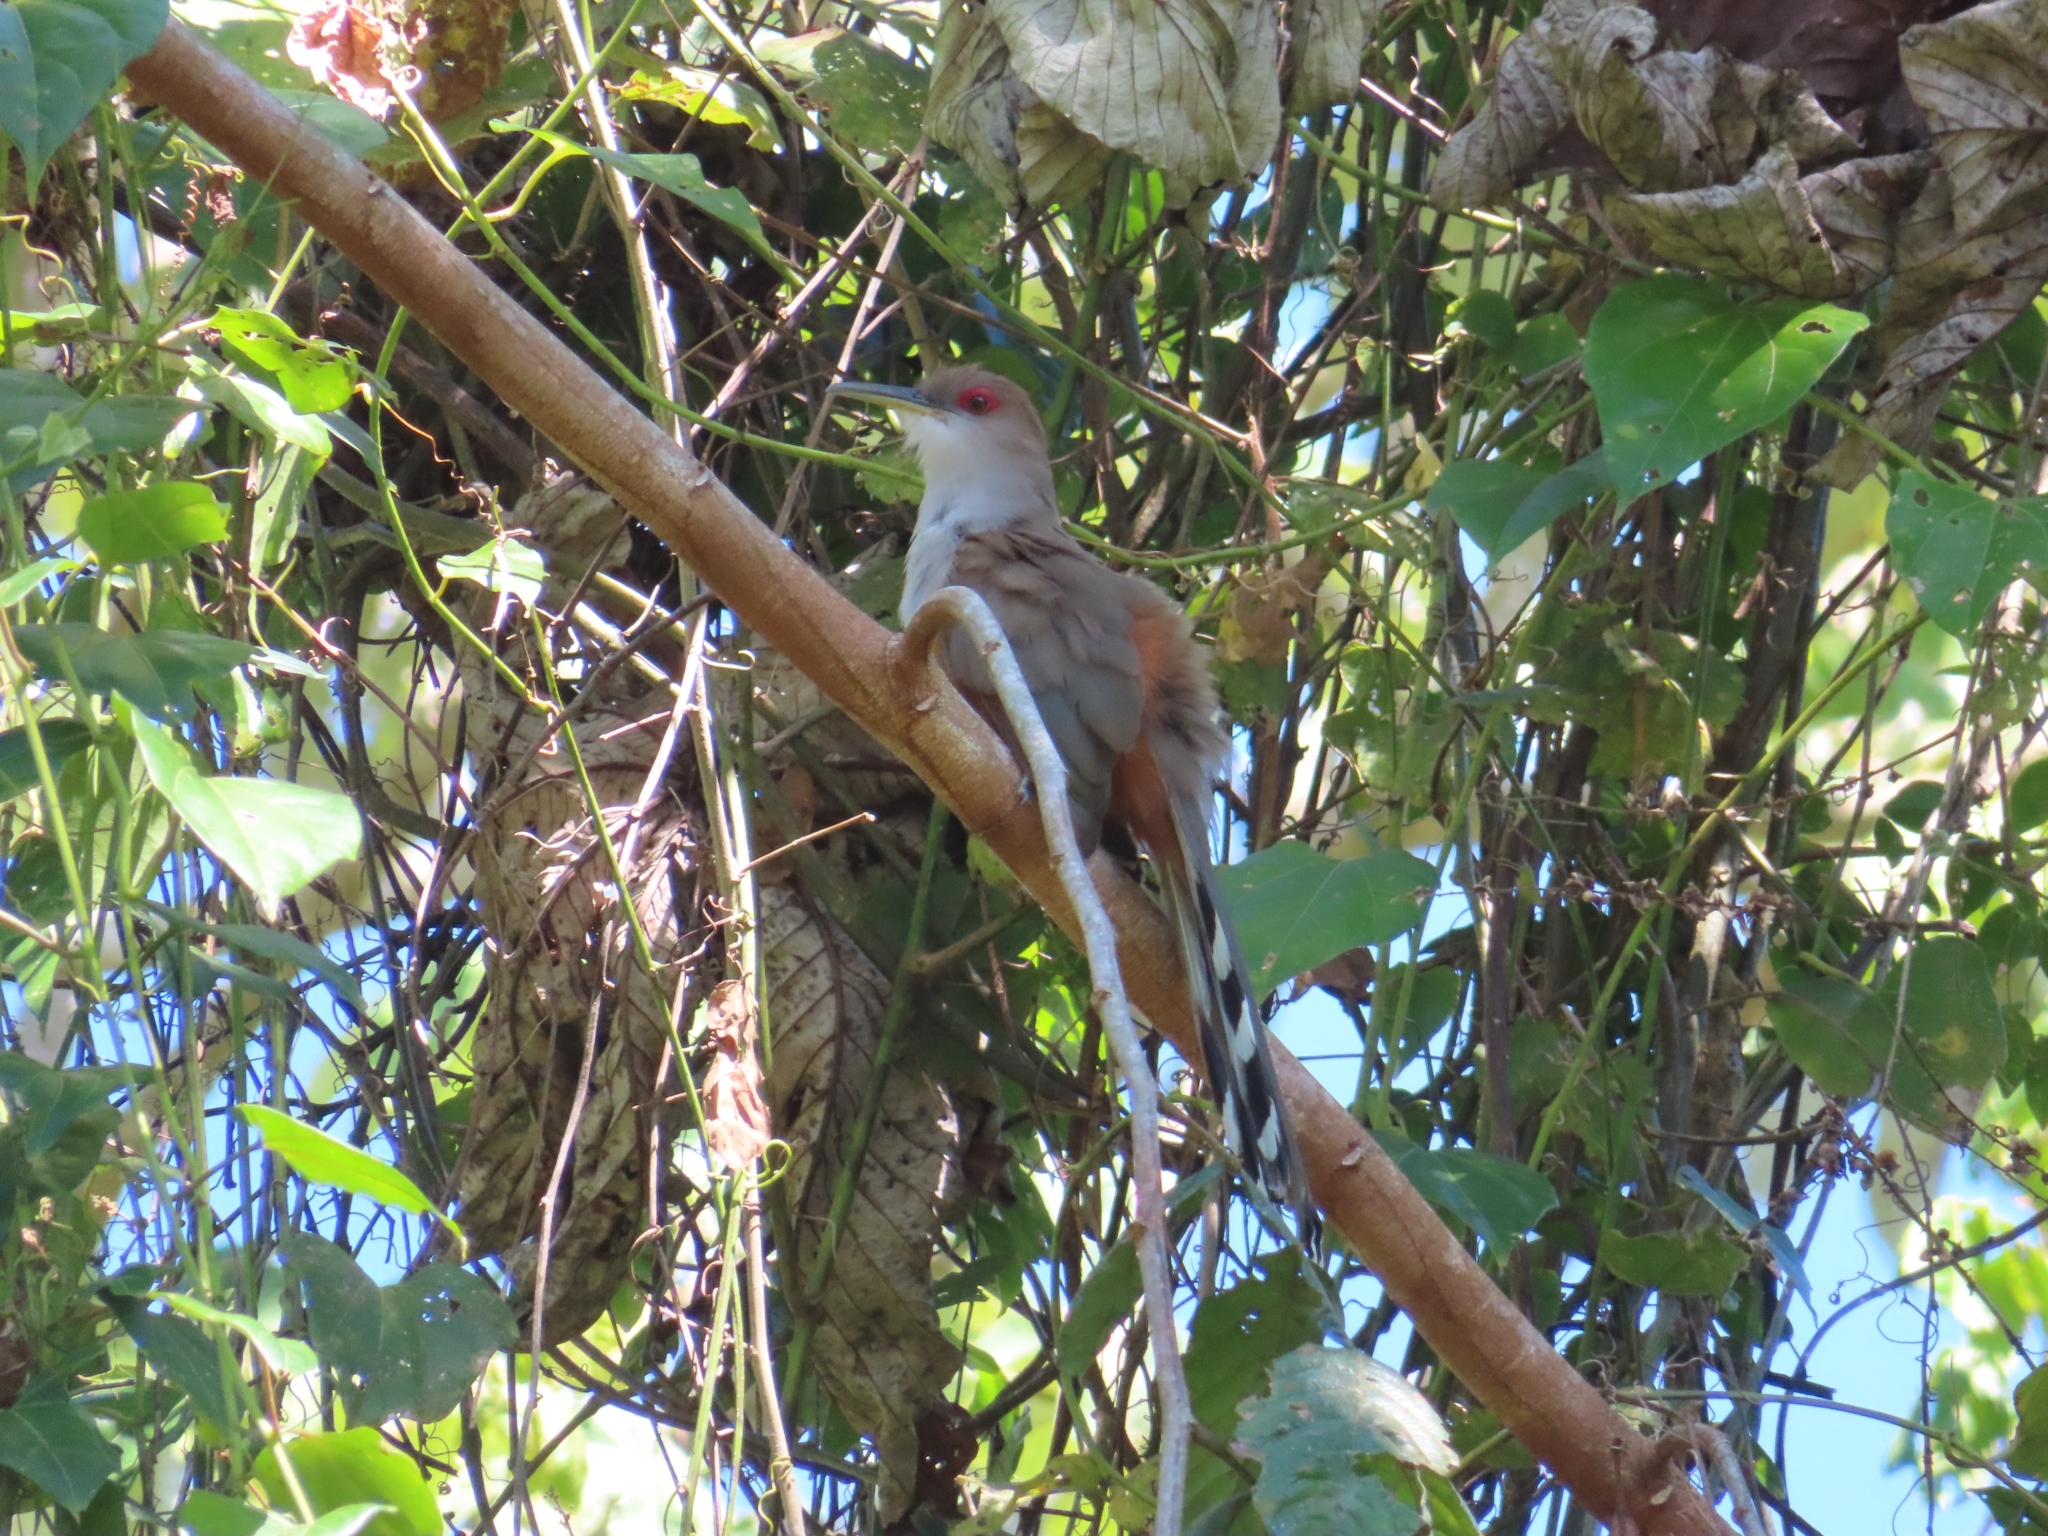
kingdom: Animalia
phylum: Chordata
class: Aves
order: Cuculiformes
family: Cuculidae
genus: Saurothera
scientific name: Saurothera vieilloti
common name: Puerto rican lizard-cuckoo
